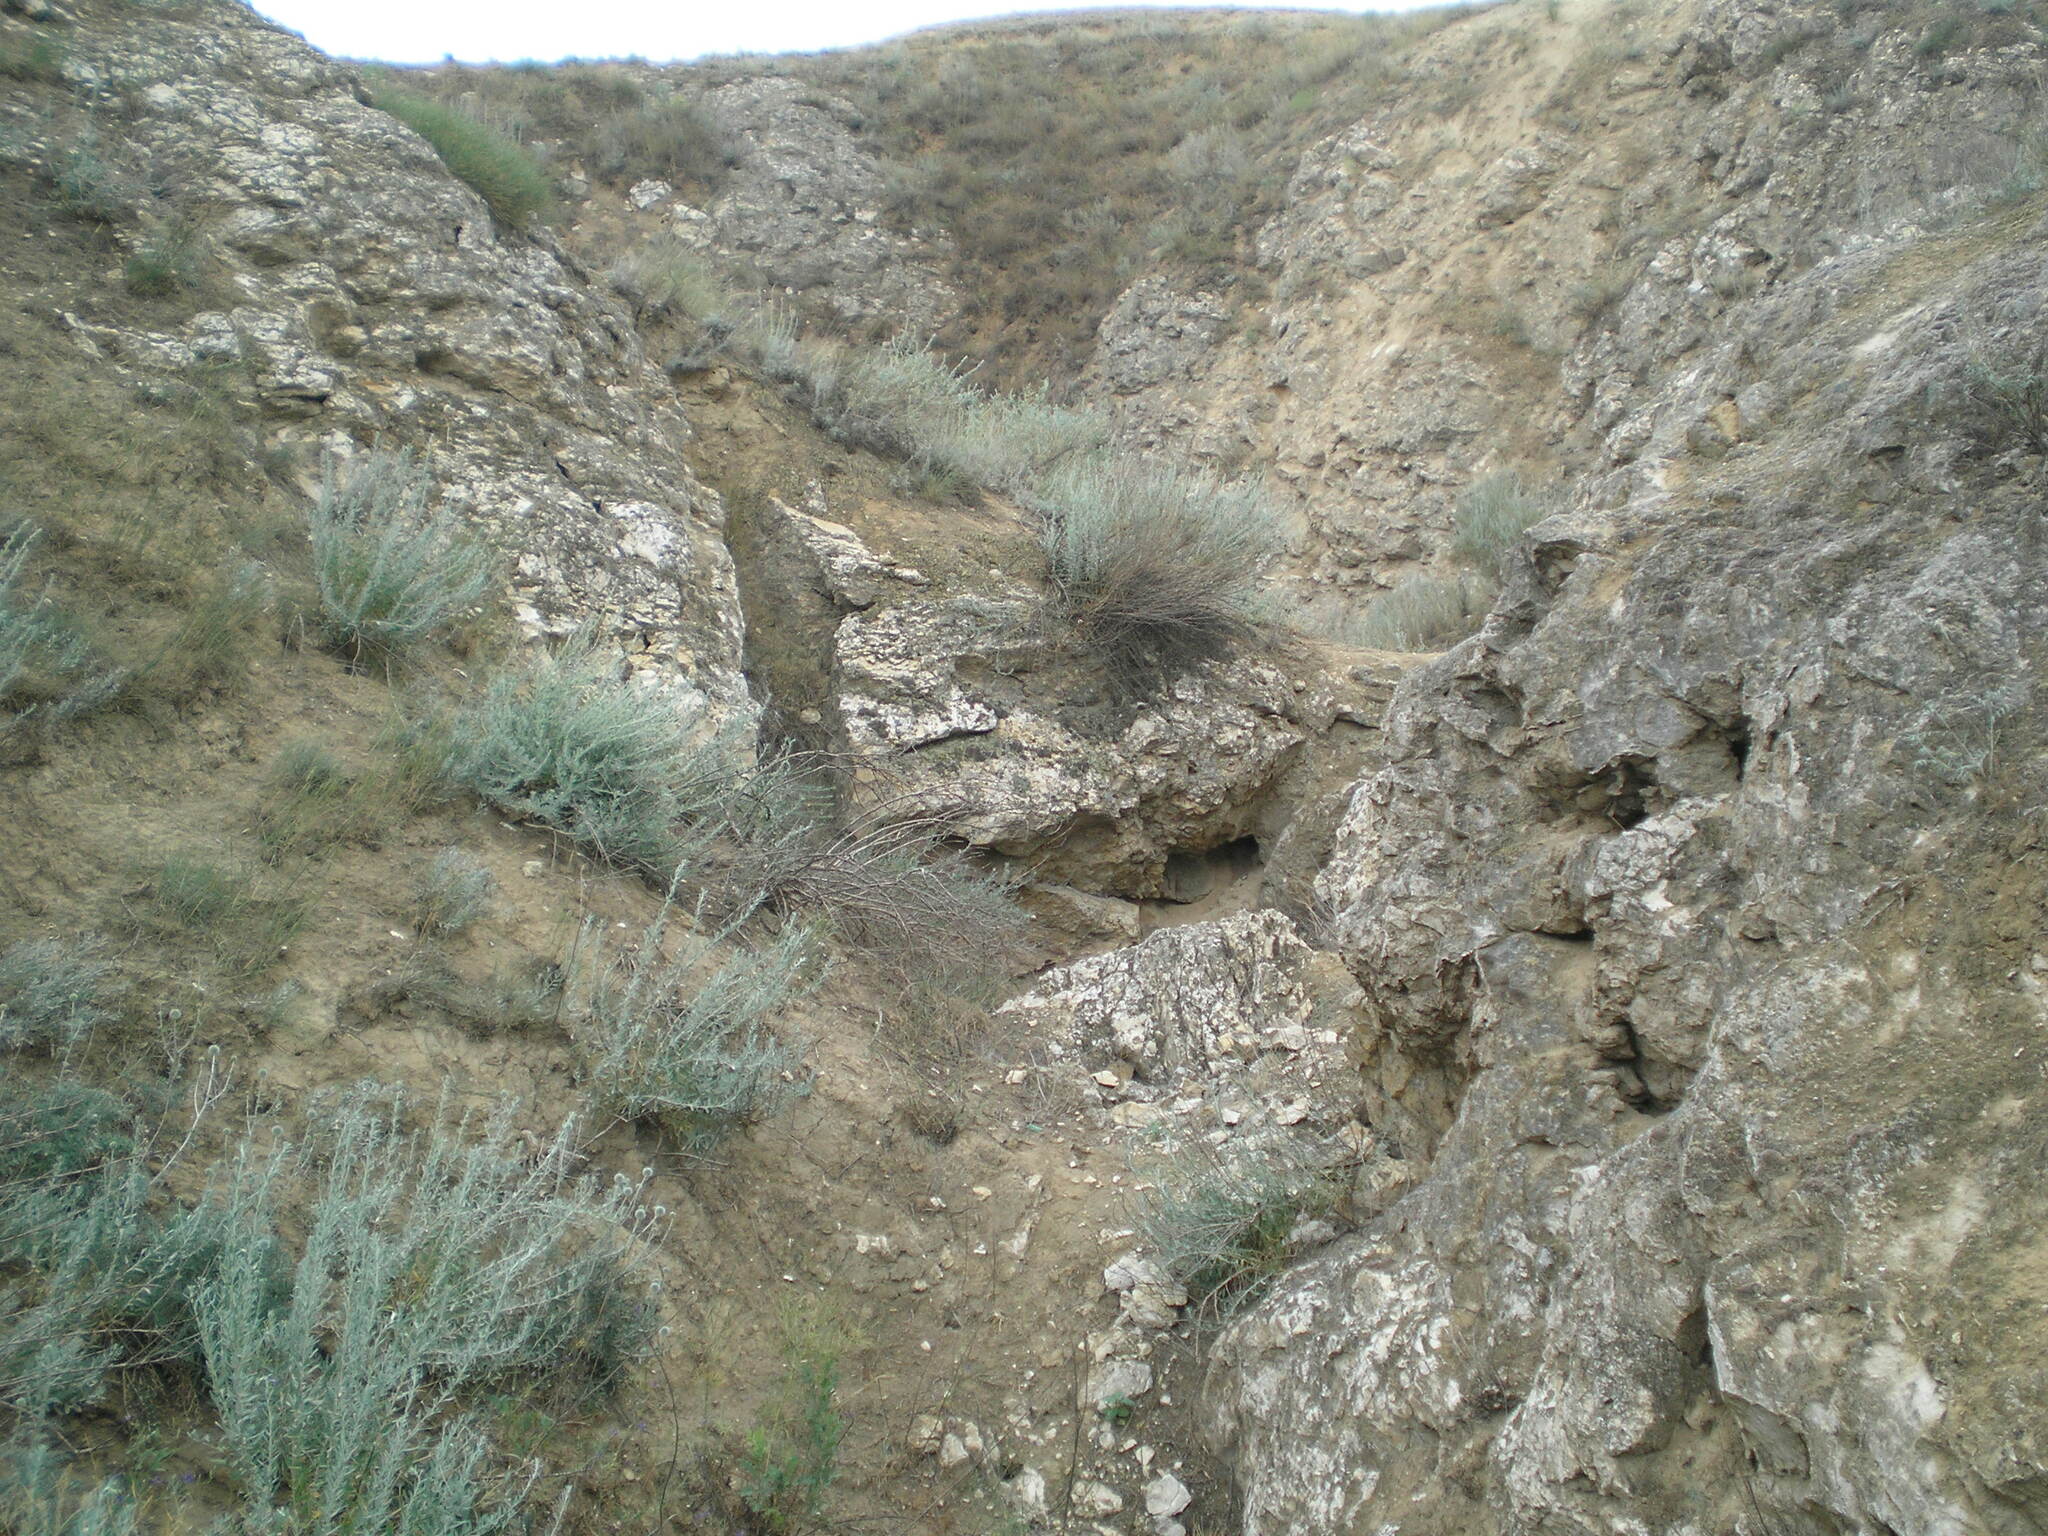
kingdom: Plantae
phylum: Tracheophyta
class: Magnoliopsida
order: Caryophyllales
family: Amaranthaceae
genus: Krascheninnikovia
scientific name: Krascheninnikovia ceratoides
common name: Pamirian winterfat
